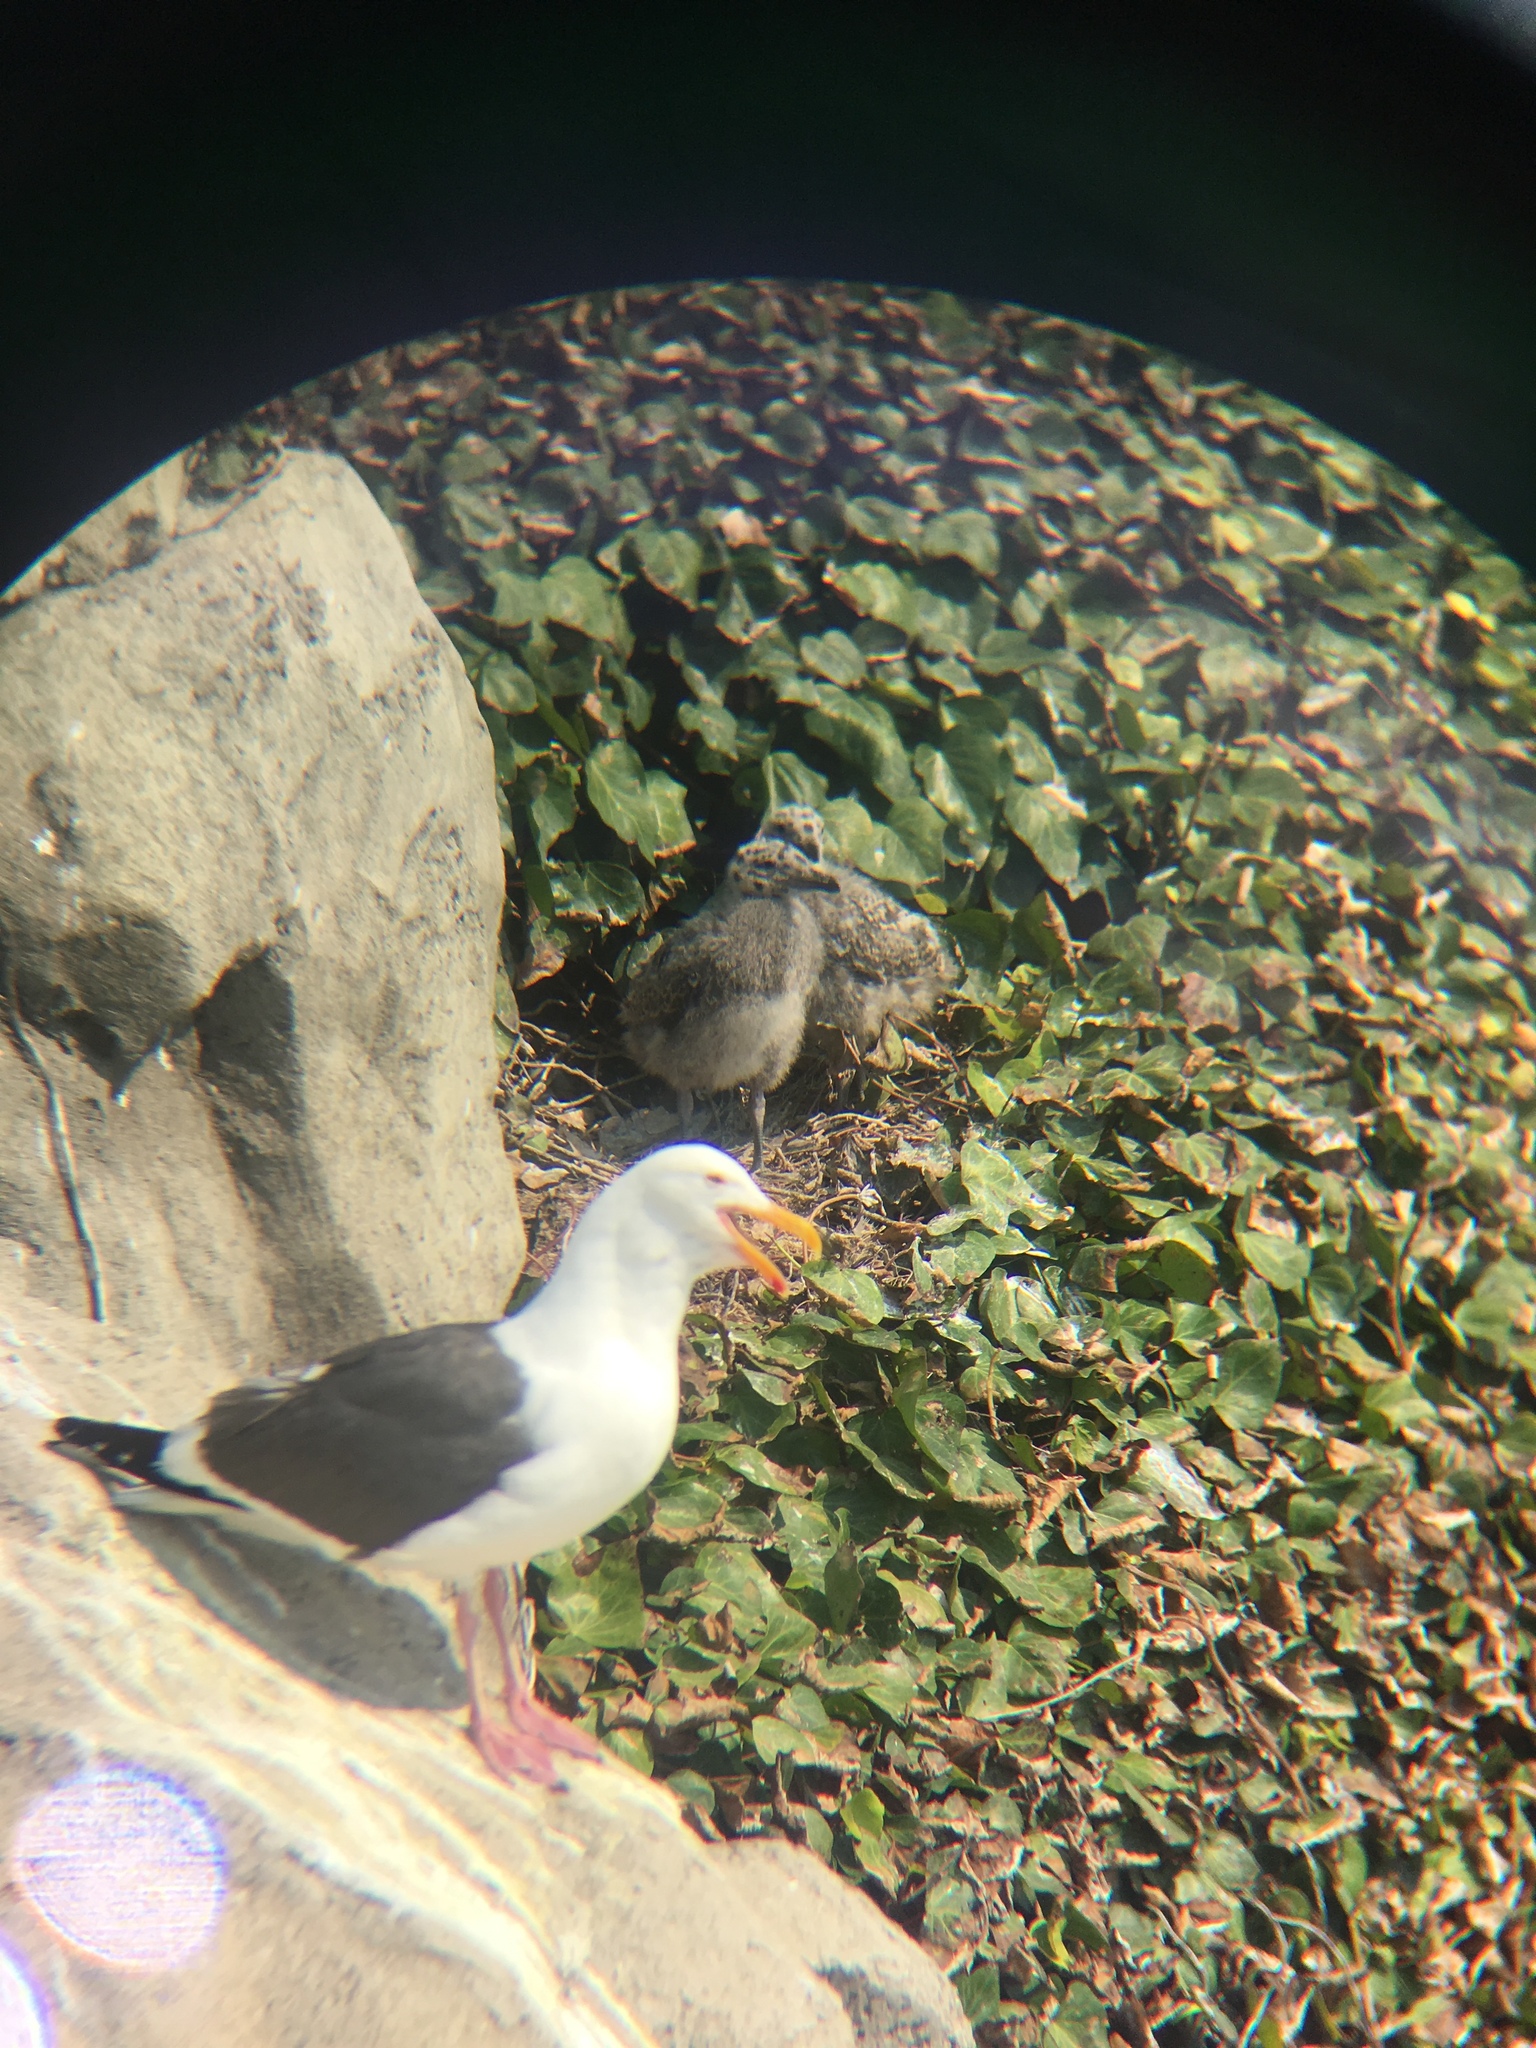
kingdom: Animalia
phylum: Chordata
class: Aves
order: Charadriiformes
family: Laridae
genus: Larus
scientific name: Larus occidentalis
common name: Western gull
